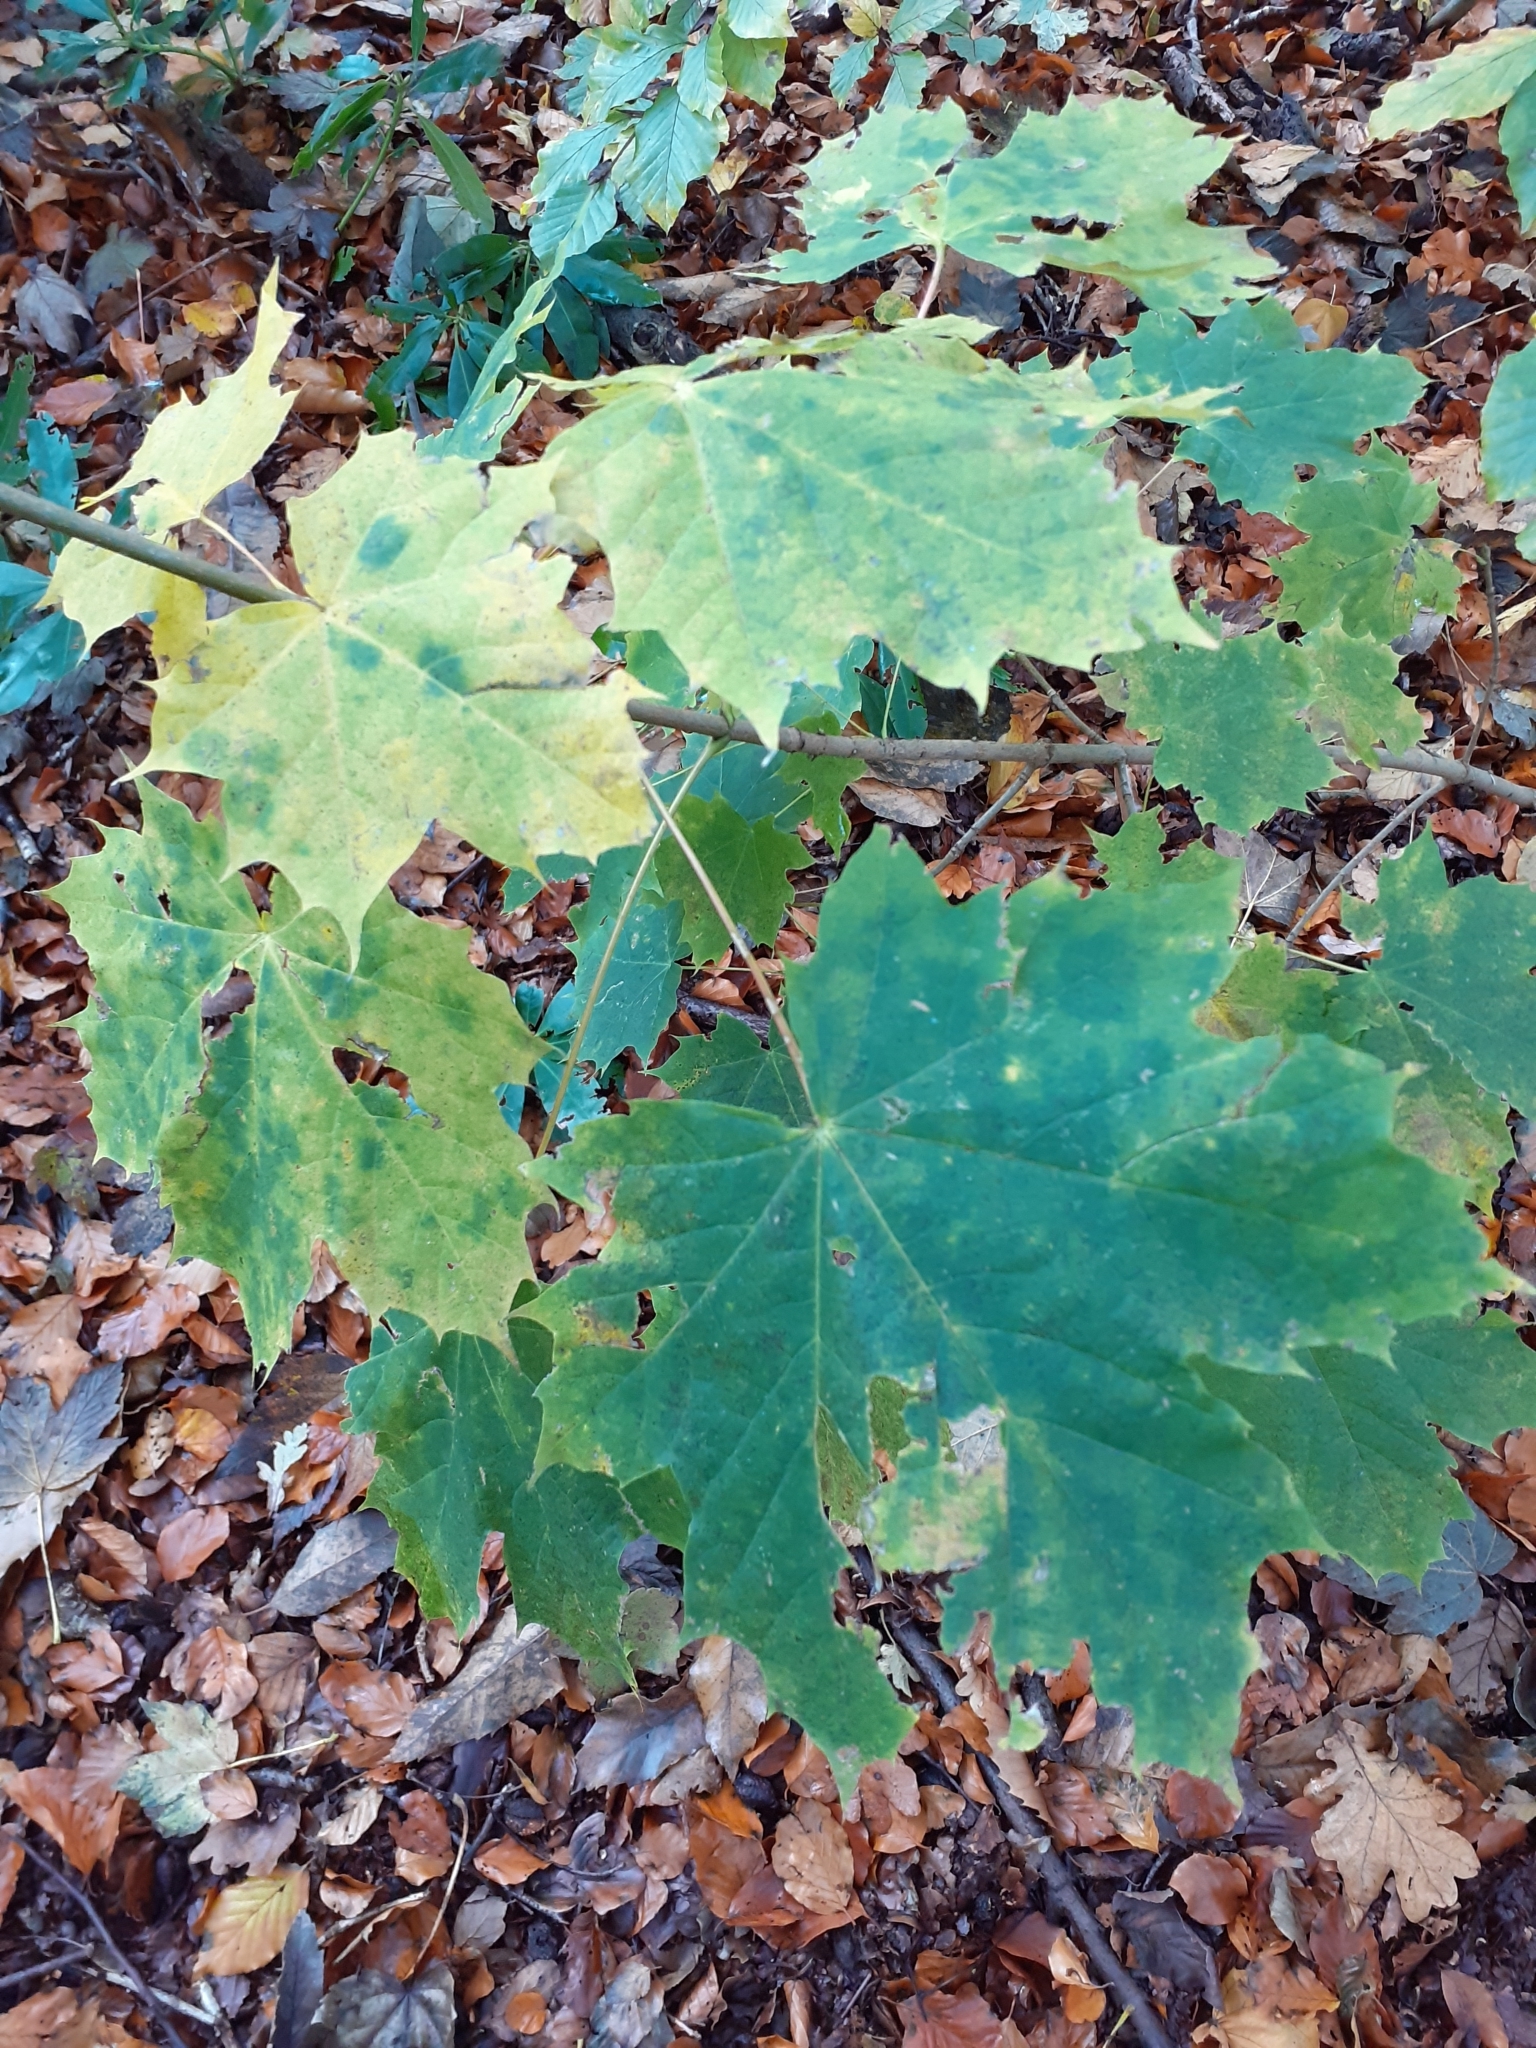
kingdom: Plantae
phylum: Tracheophyta
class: Magnoliopsida
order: Sapindales
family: Sapindaceae
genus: Acer
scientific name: Acer platanoides
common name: Norway maple
